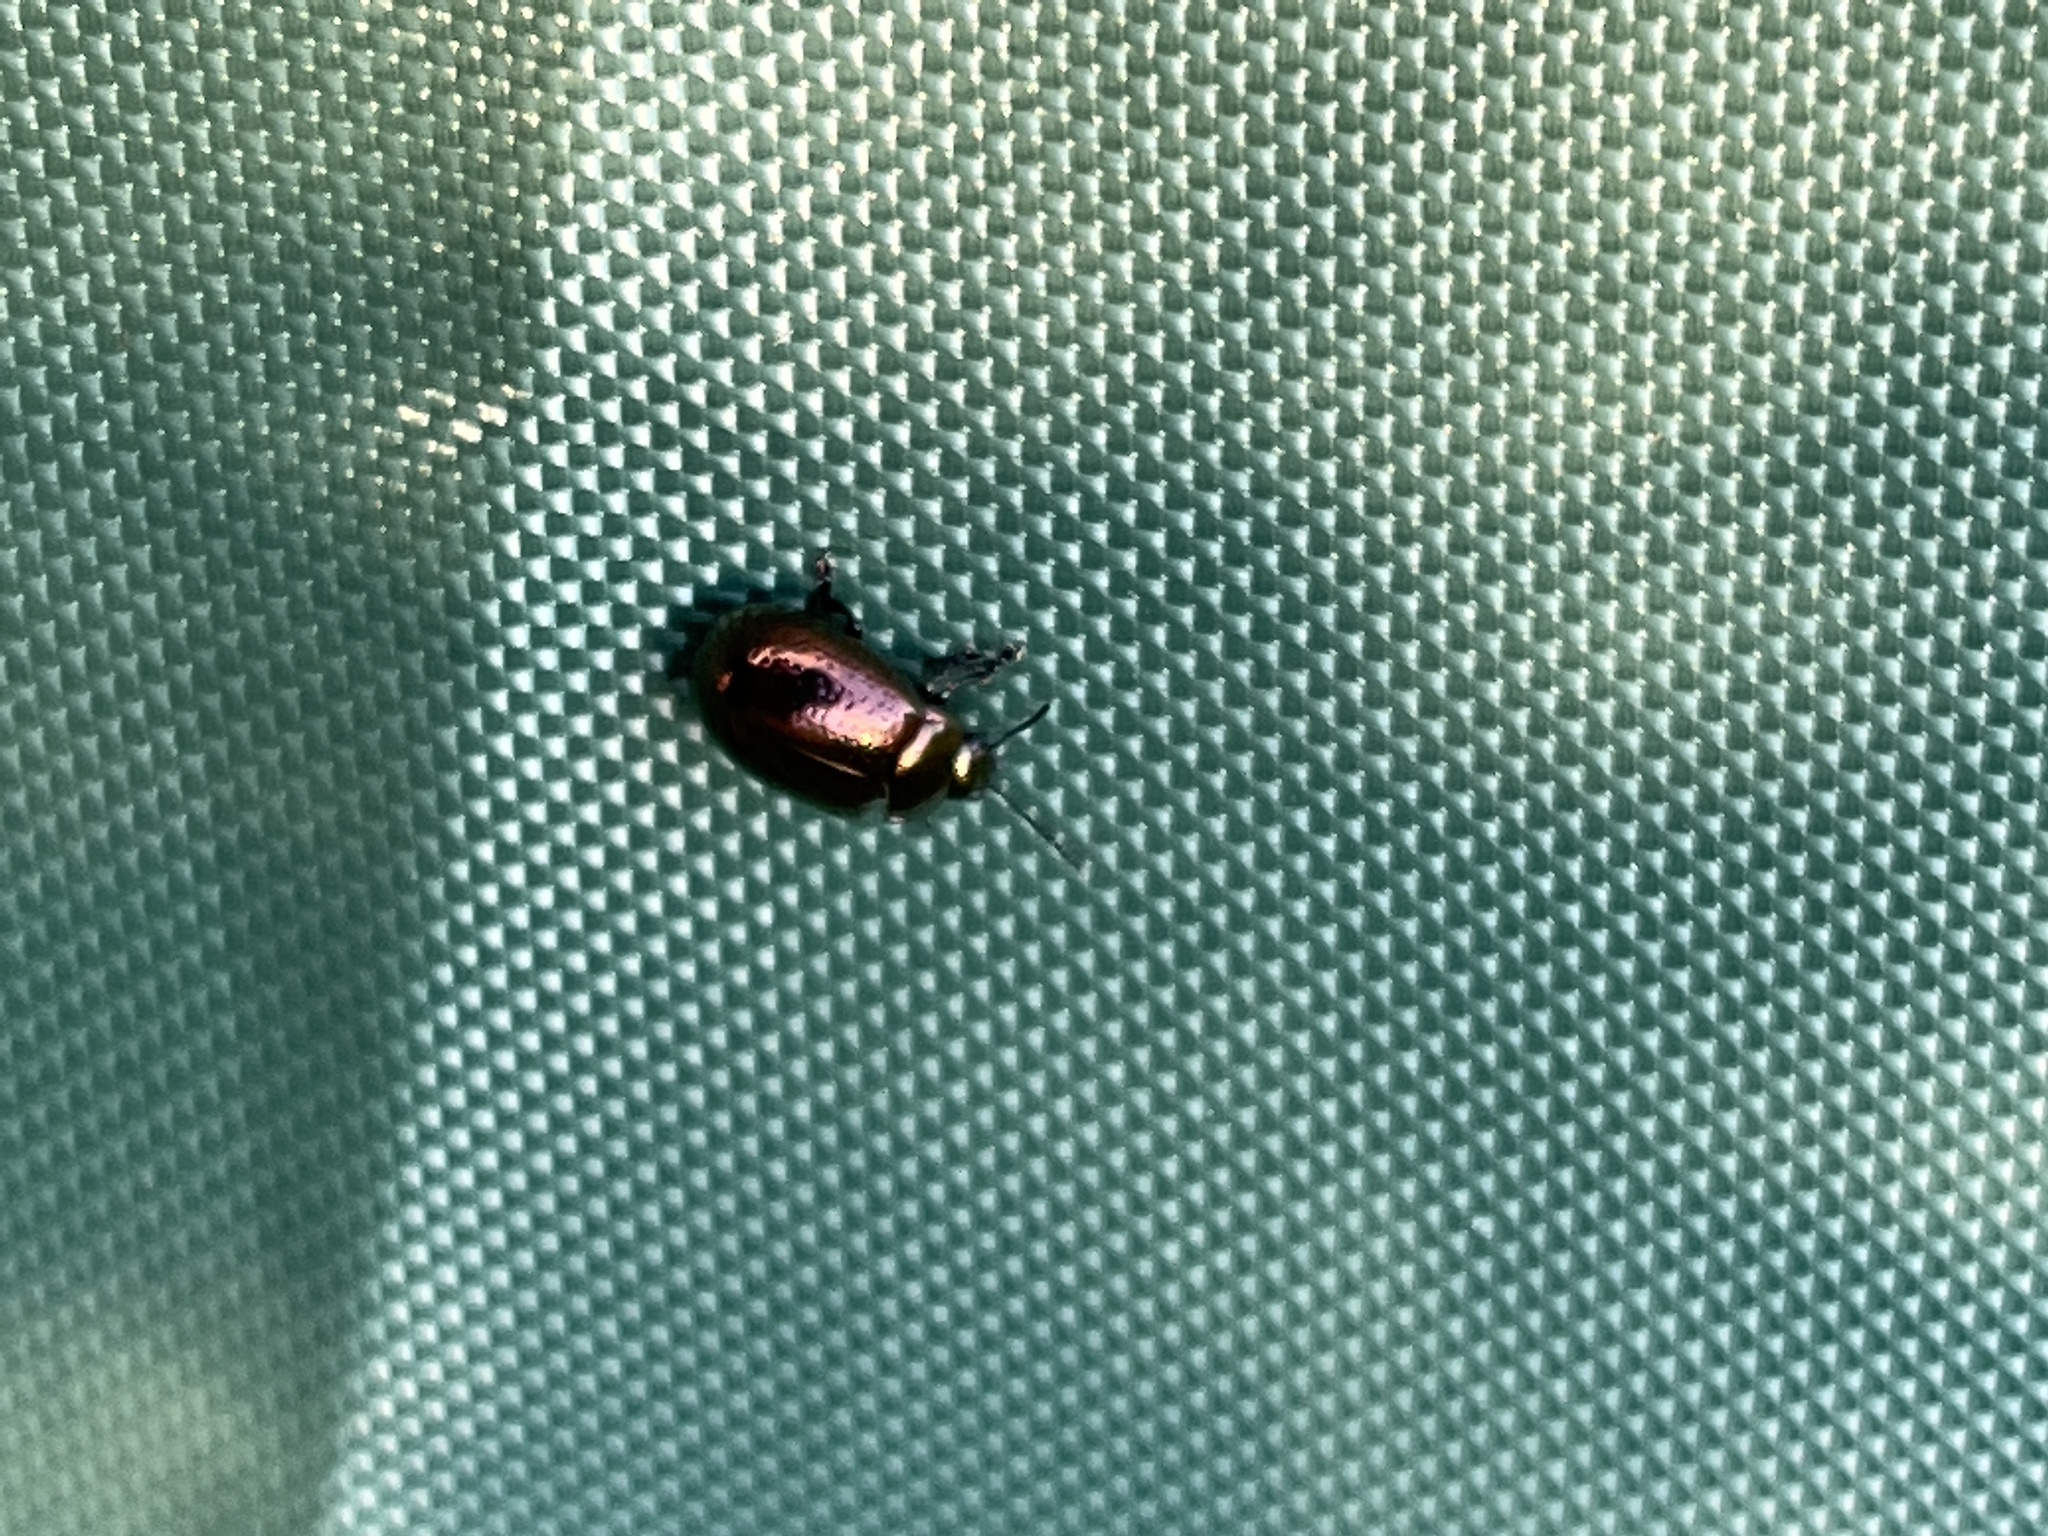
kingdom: Animalia
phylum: Arthropoda
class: Insecta
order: Coleoptera
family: Chrysomelidae
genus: Chrysolina
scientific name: Chrysolina hyperici
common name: St. johnswort beetle
